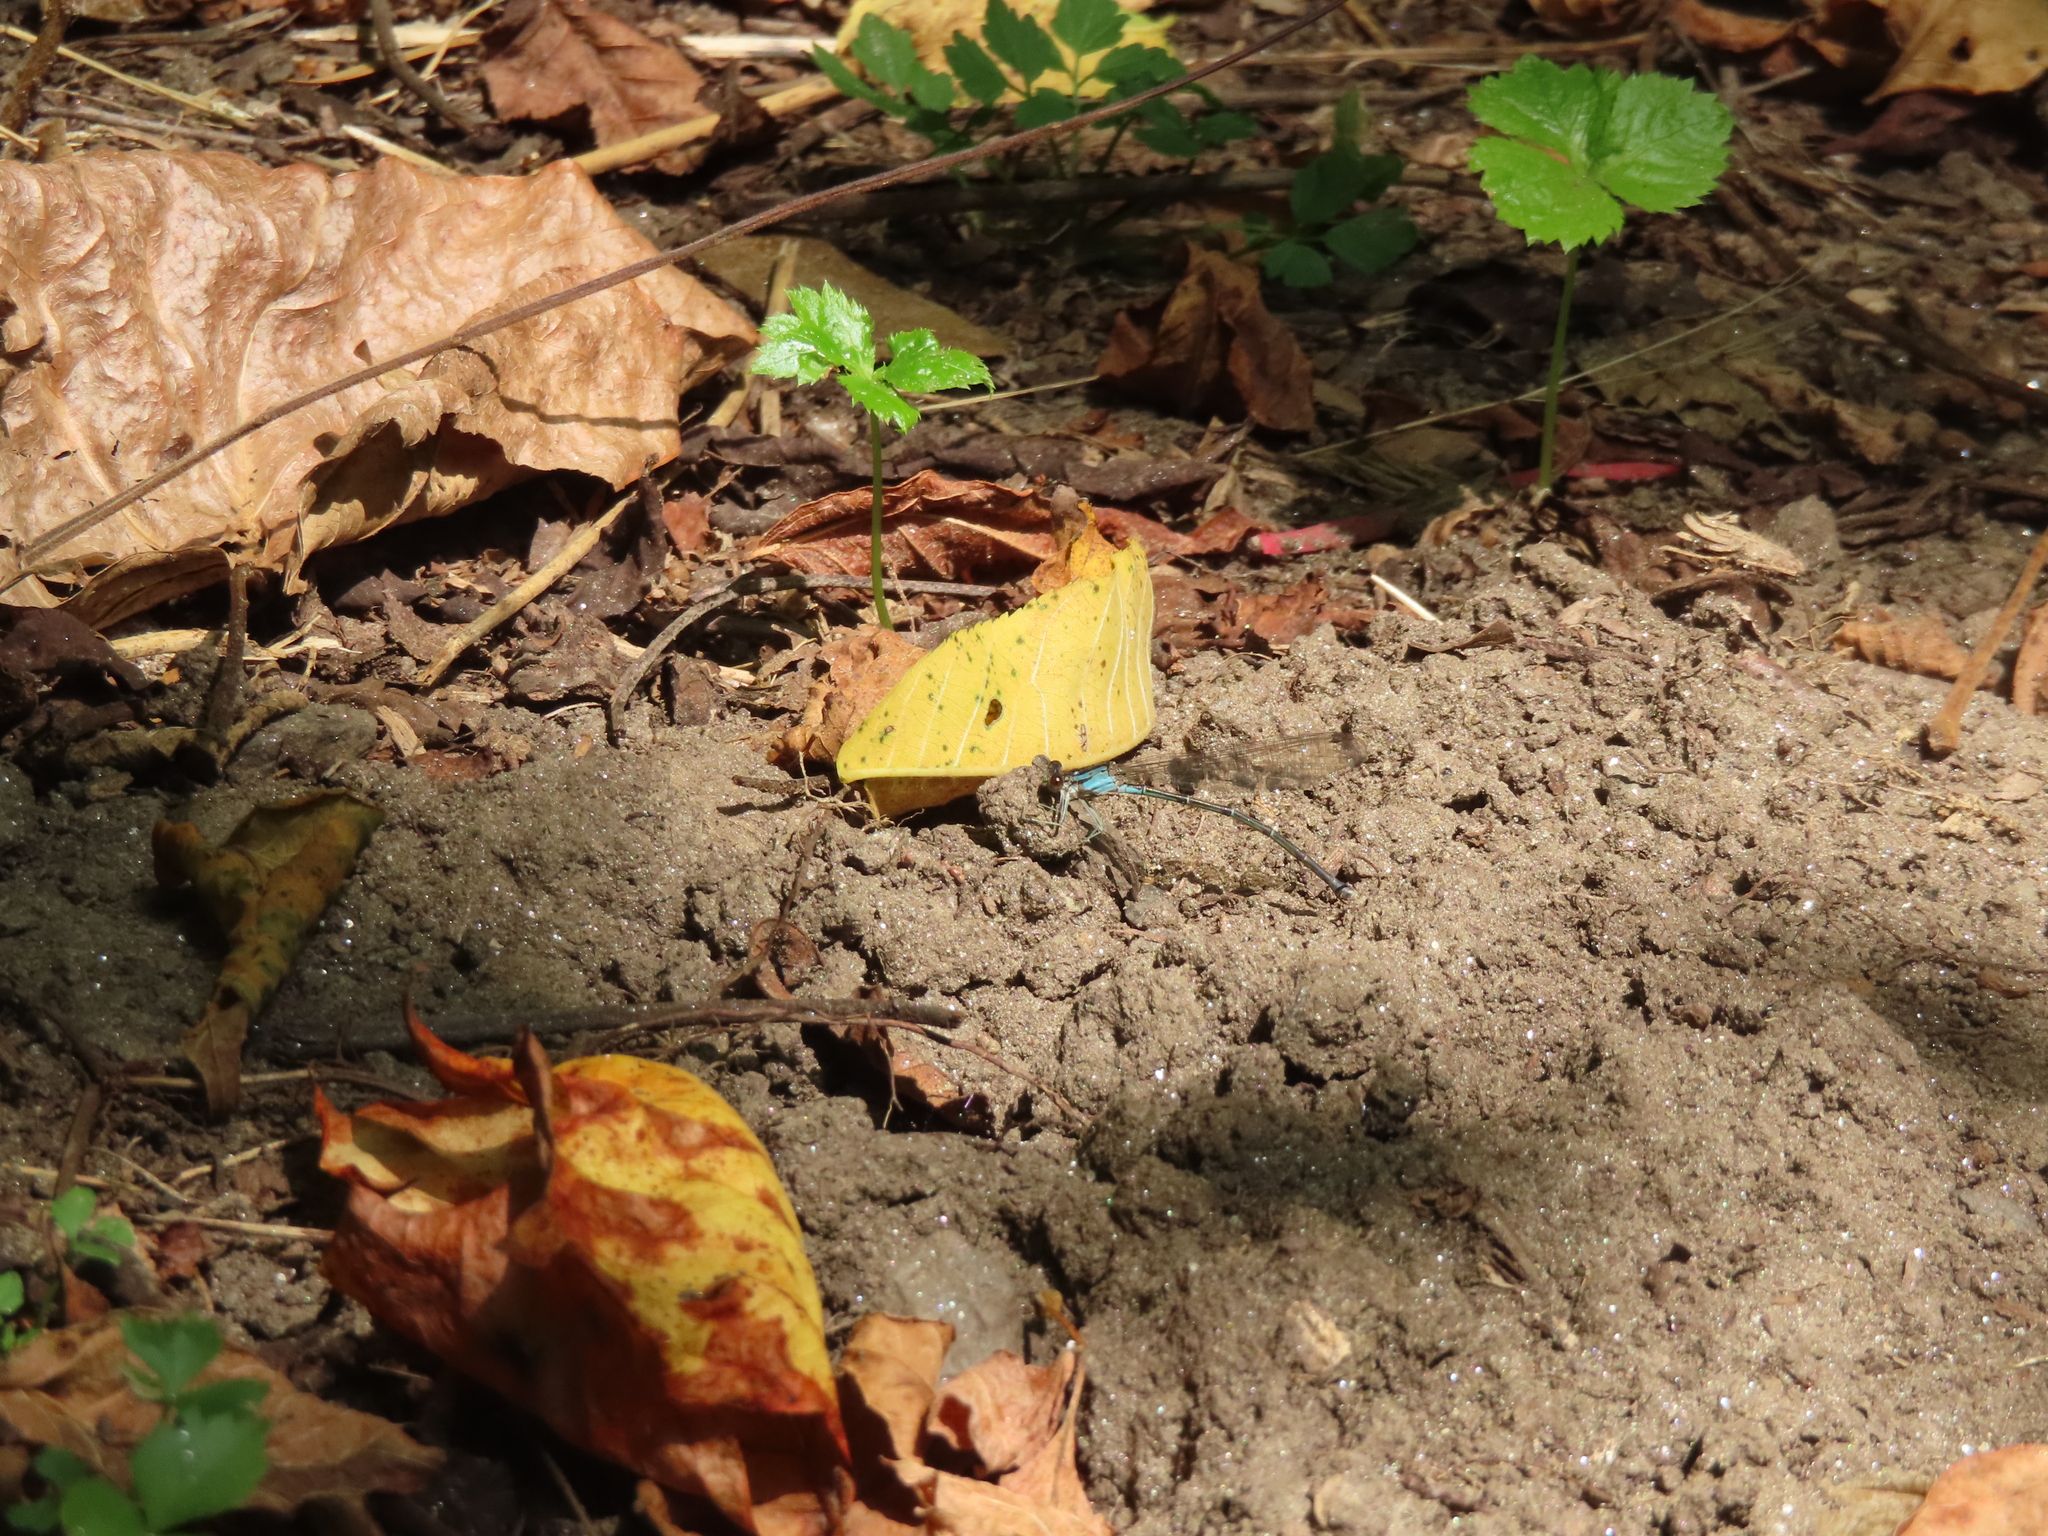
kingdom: Animalia
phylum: Arthropoda
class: Insecta
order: Odonata
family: Coenagrionidae
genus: Argia
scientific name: Argia apicalis
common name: Blue-fronted dancer
